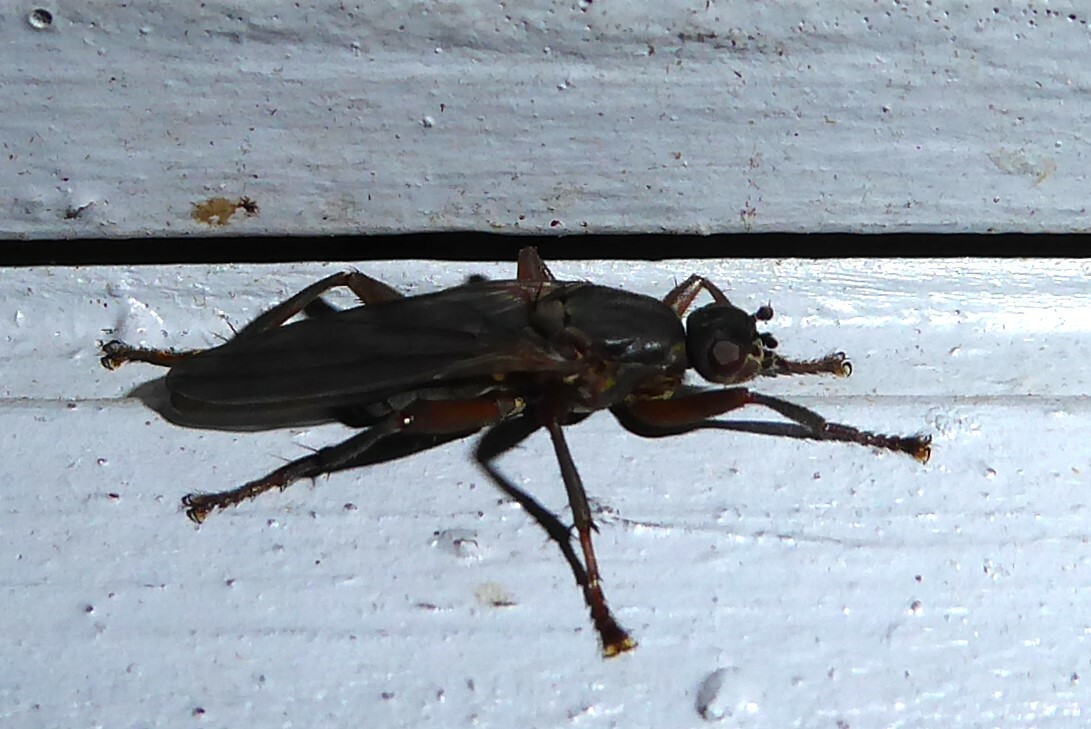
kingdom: Animalia
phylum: Arthropoda
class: Insecta
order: Diptera
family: Coelopidae
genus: Baeopterus
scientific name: Baeopterus philpotti
